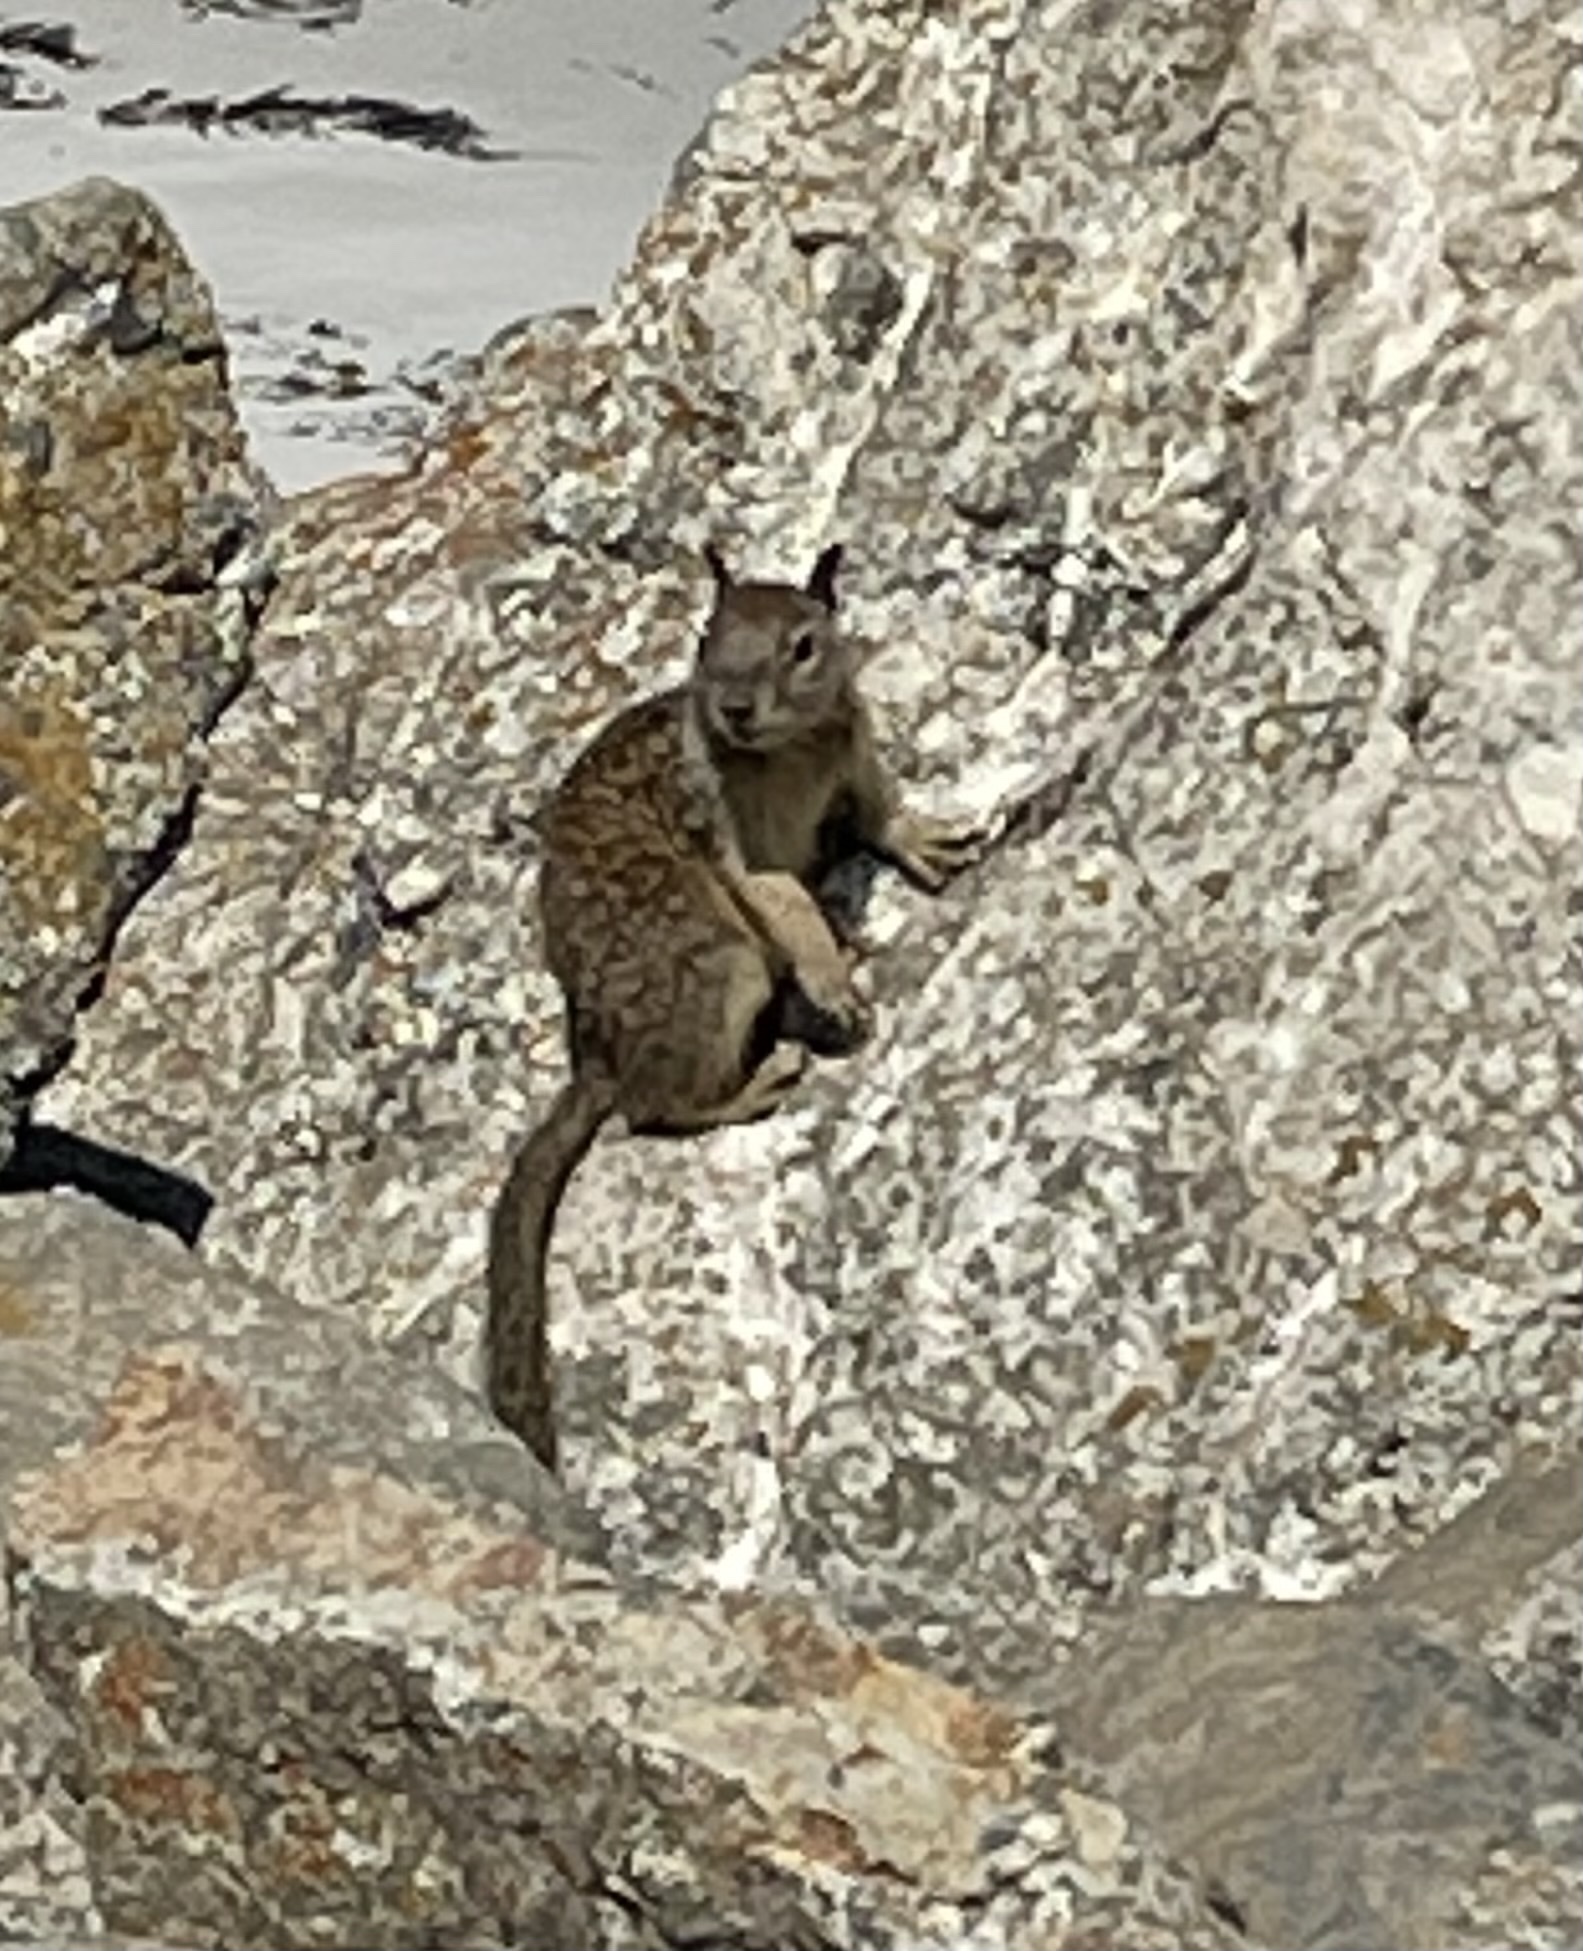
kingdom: Animalia
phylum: Chordata
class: Mammalia
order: Rodentia
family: Sciuridae
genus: Otospermophilus
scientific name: Otospermophilus beecheyi
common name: California ground squirrel
